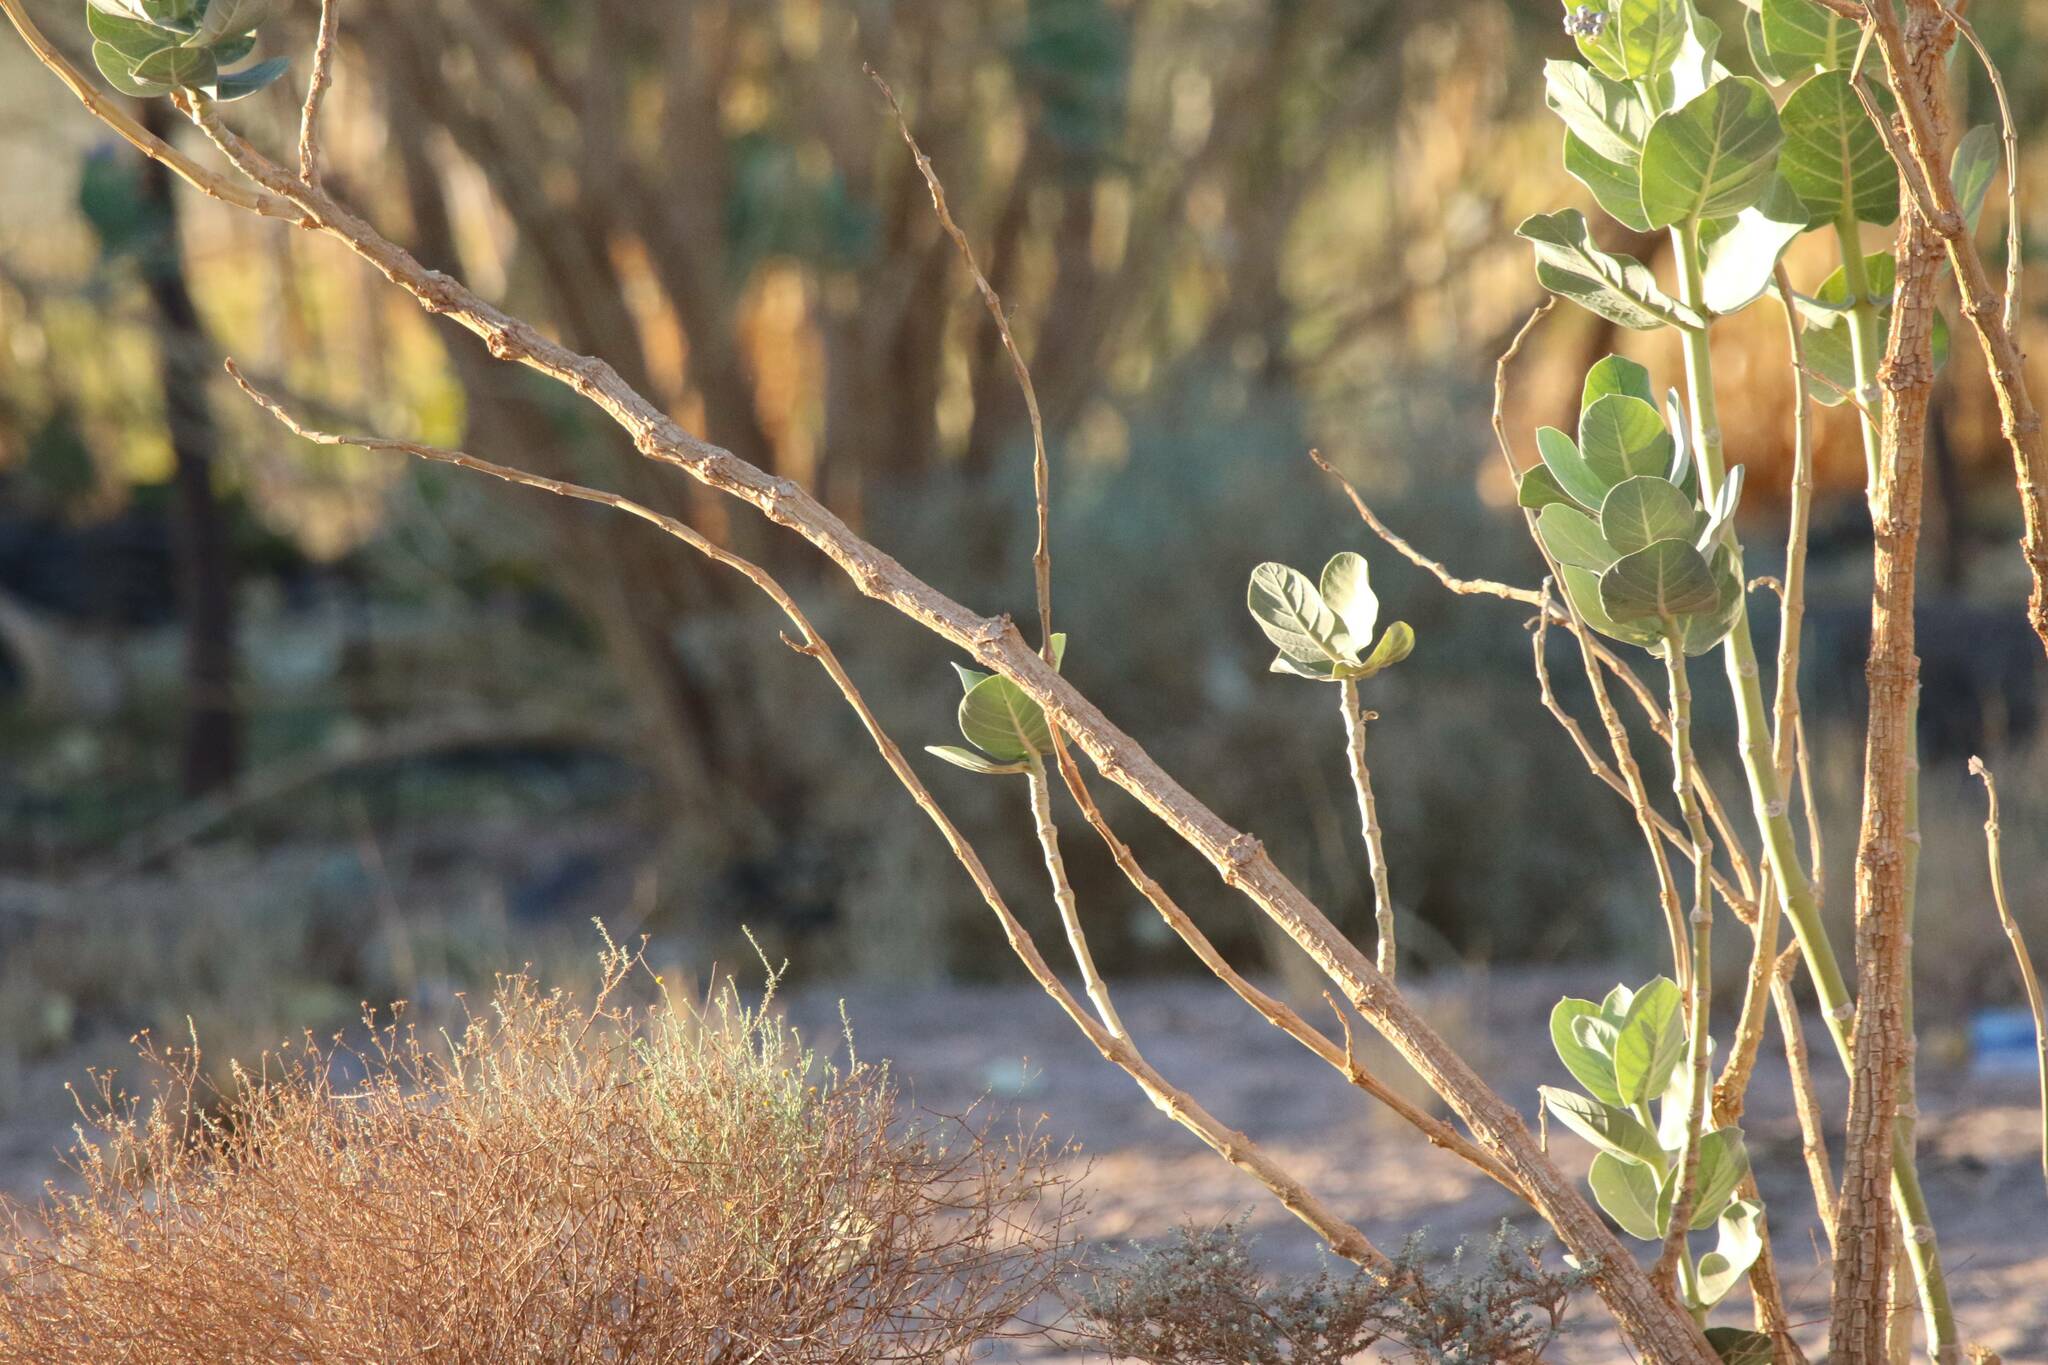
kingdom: Plantae
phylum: Tracheophyta
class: Magnoliopsida
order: Gentianales
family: Apocynaceae
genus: Calotropis
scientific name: Calotropis procera
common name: Roostertree
